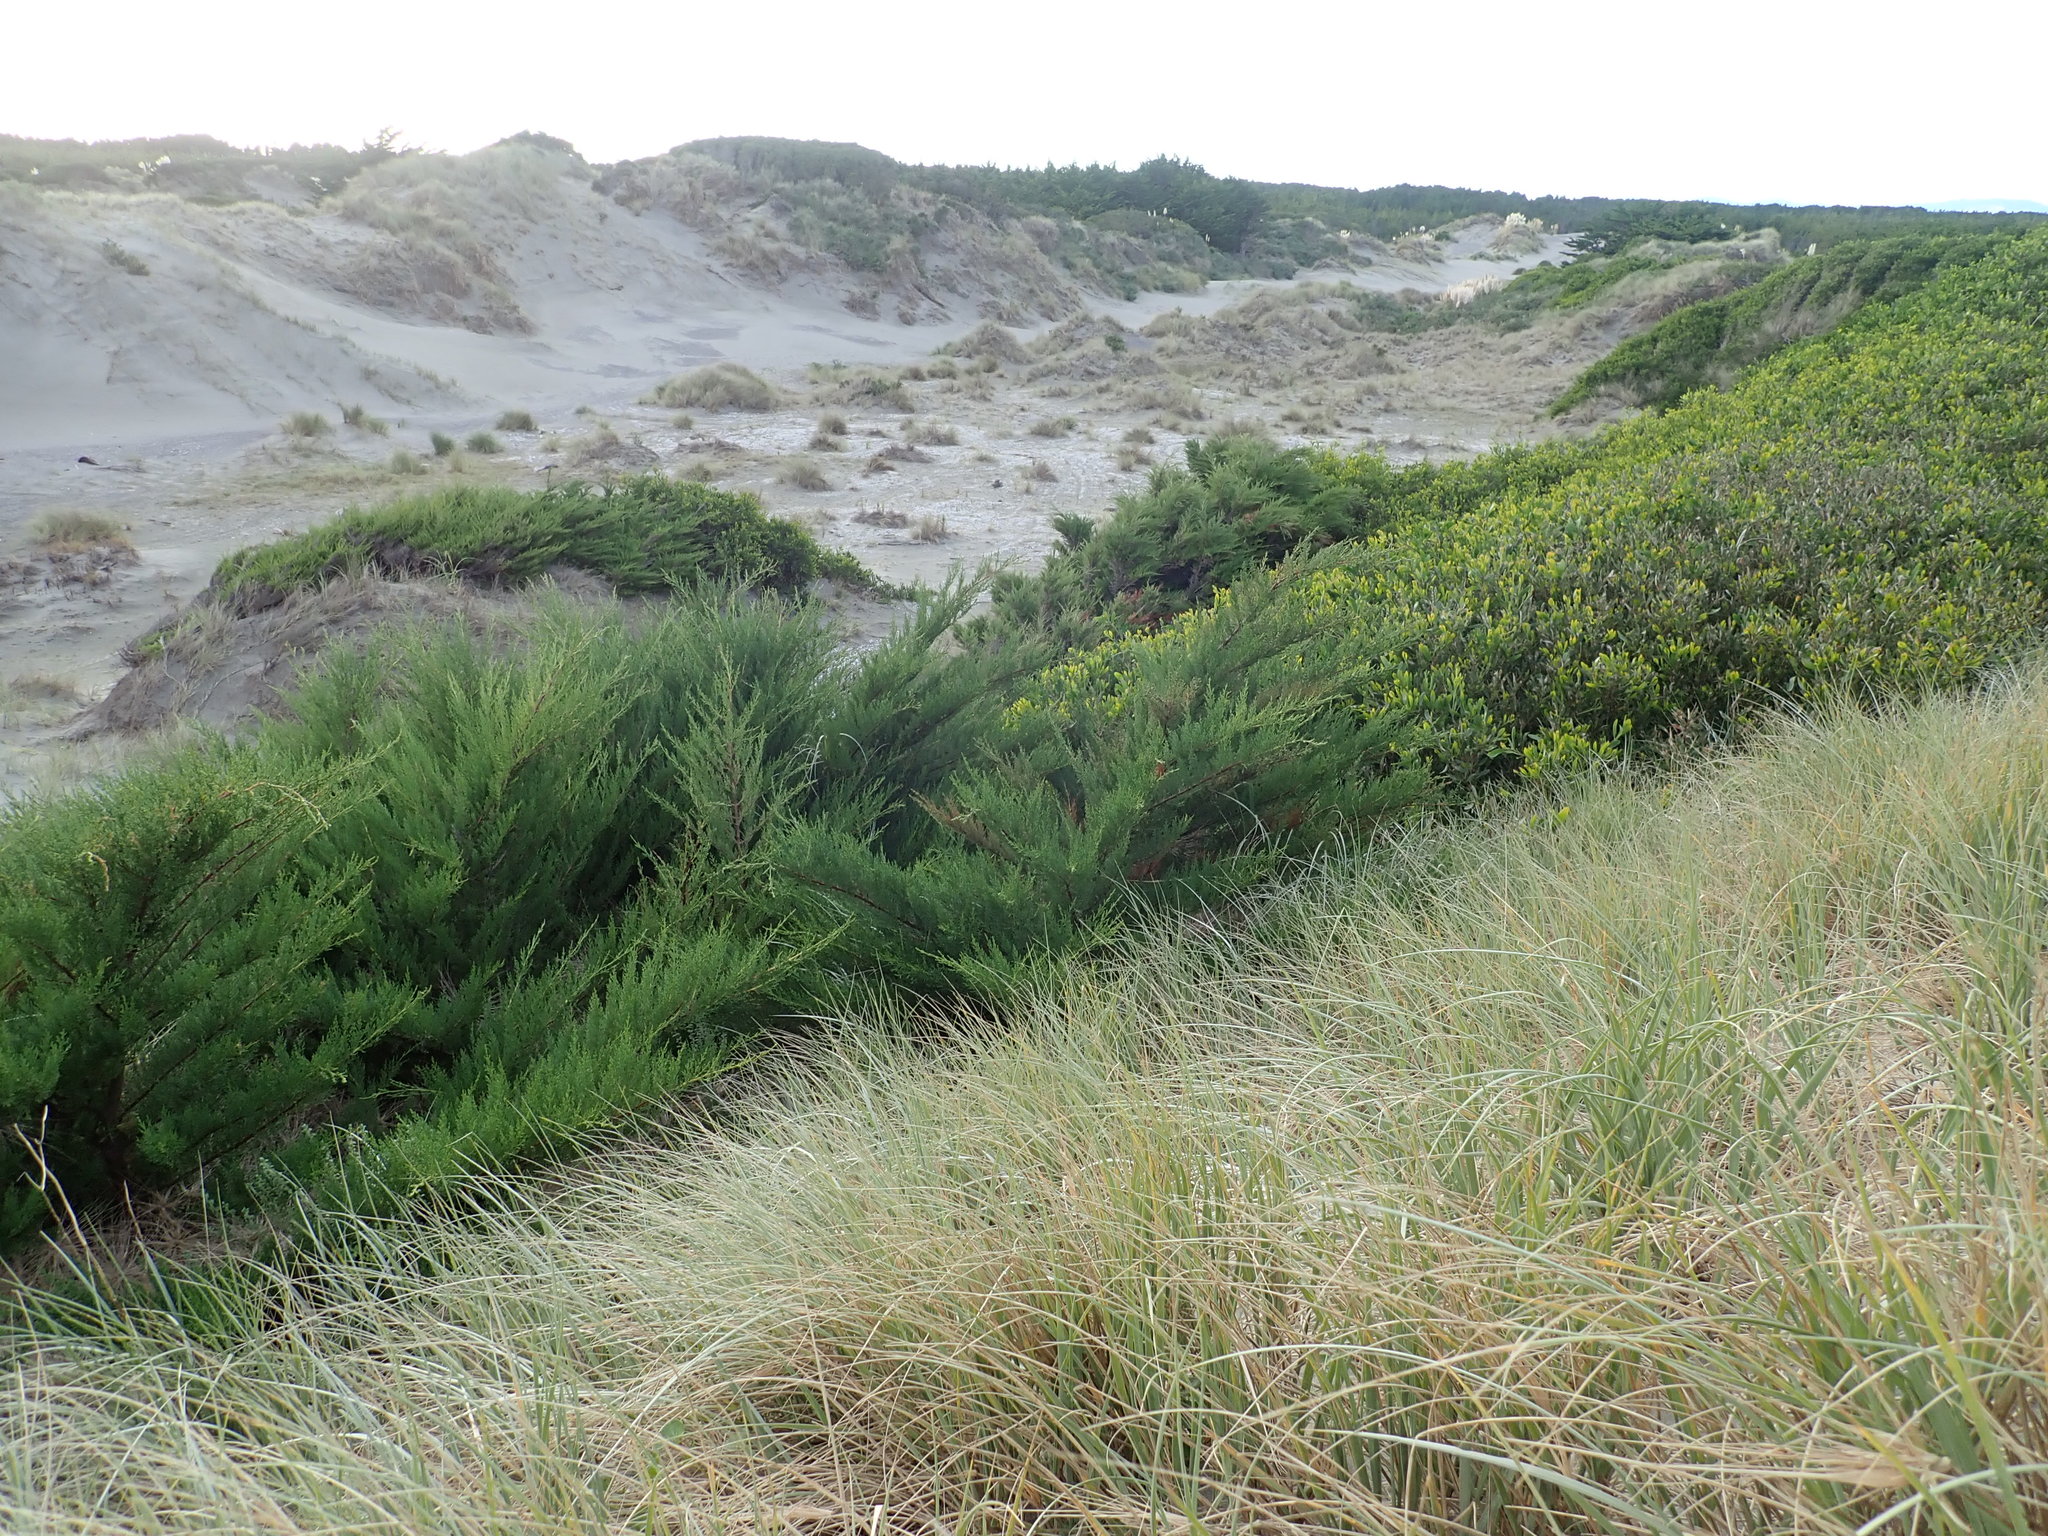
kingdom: Plantae
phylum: Tracheophyta
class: Pinopsida
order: Pinales
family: Cupressaceae
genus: Cupressus
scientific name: Cupressus macrocarpa
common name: Monterey cypress
